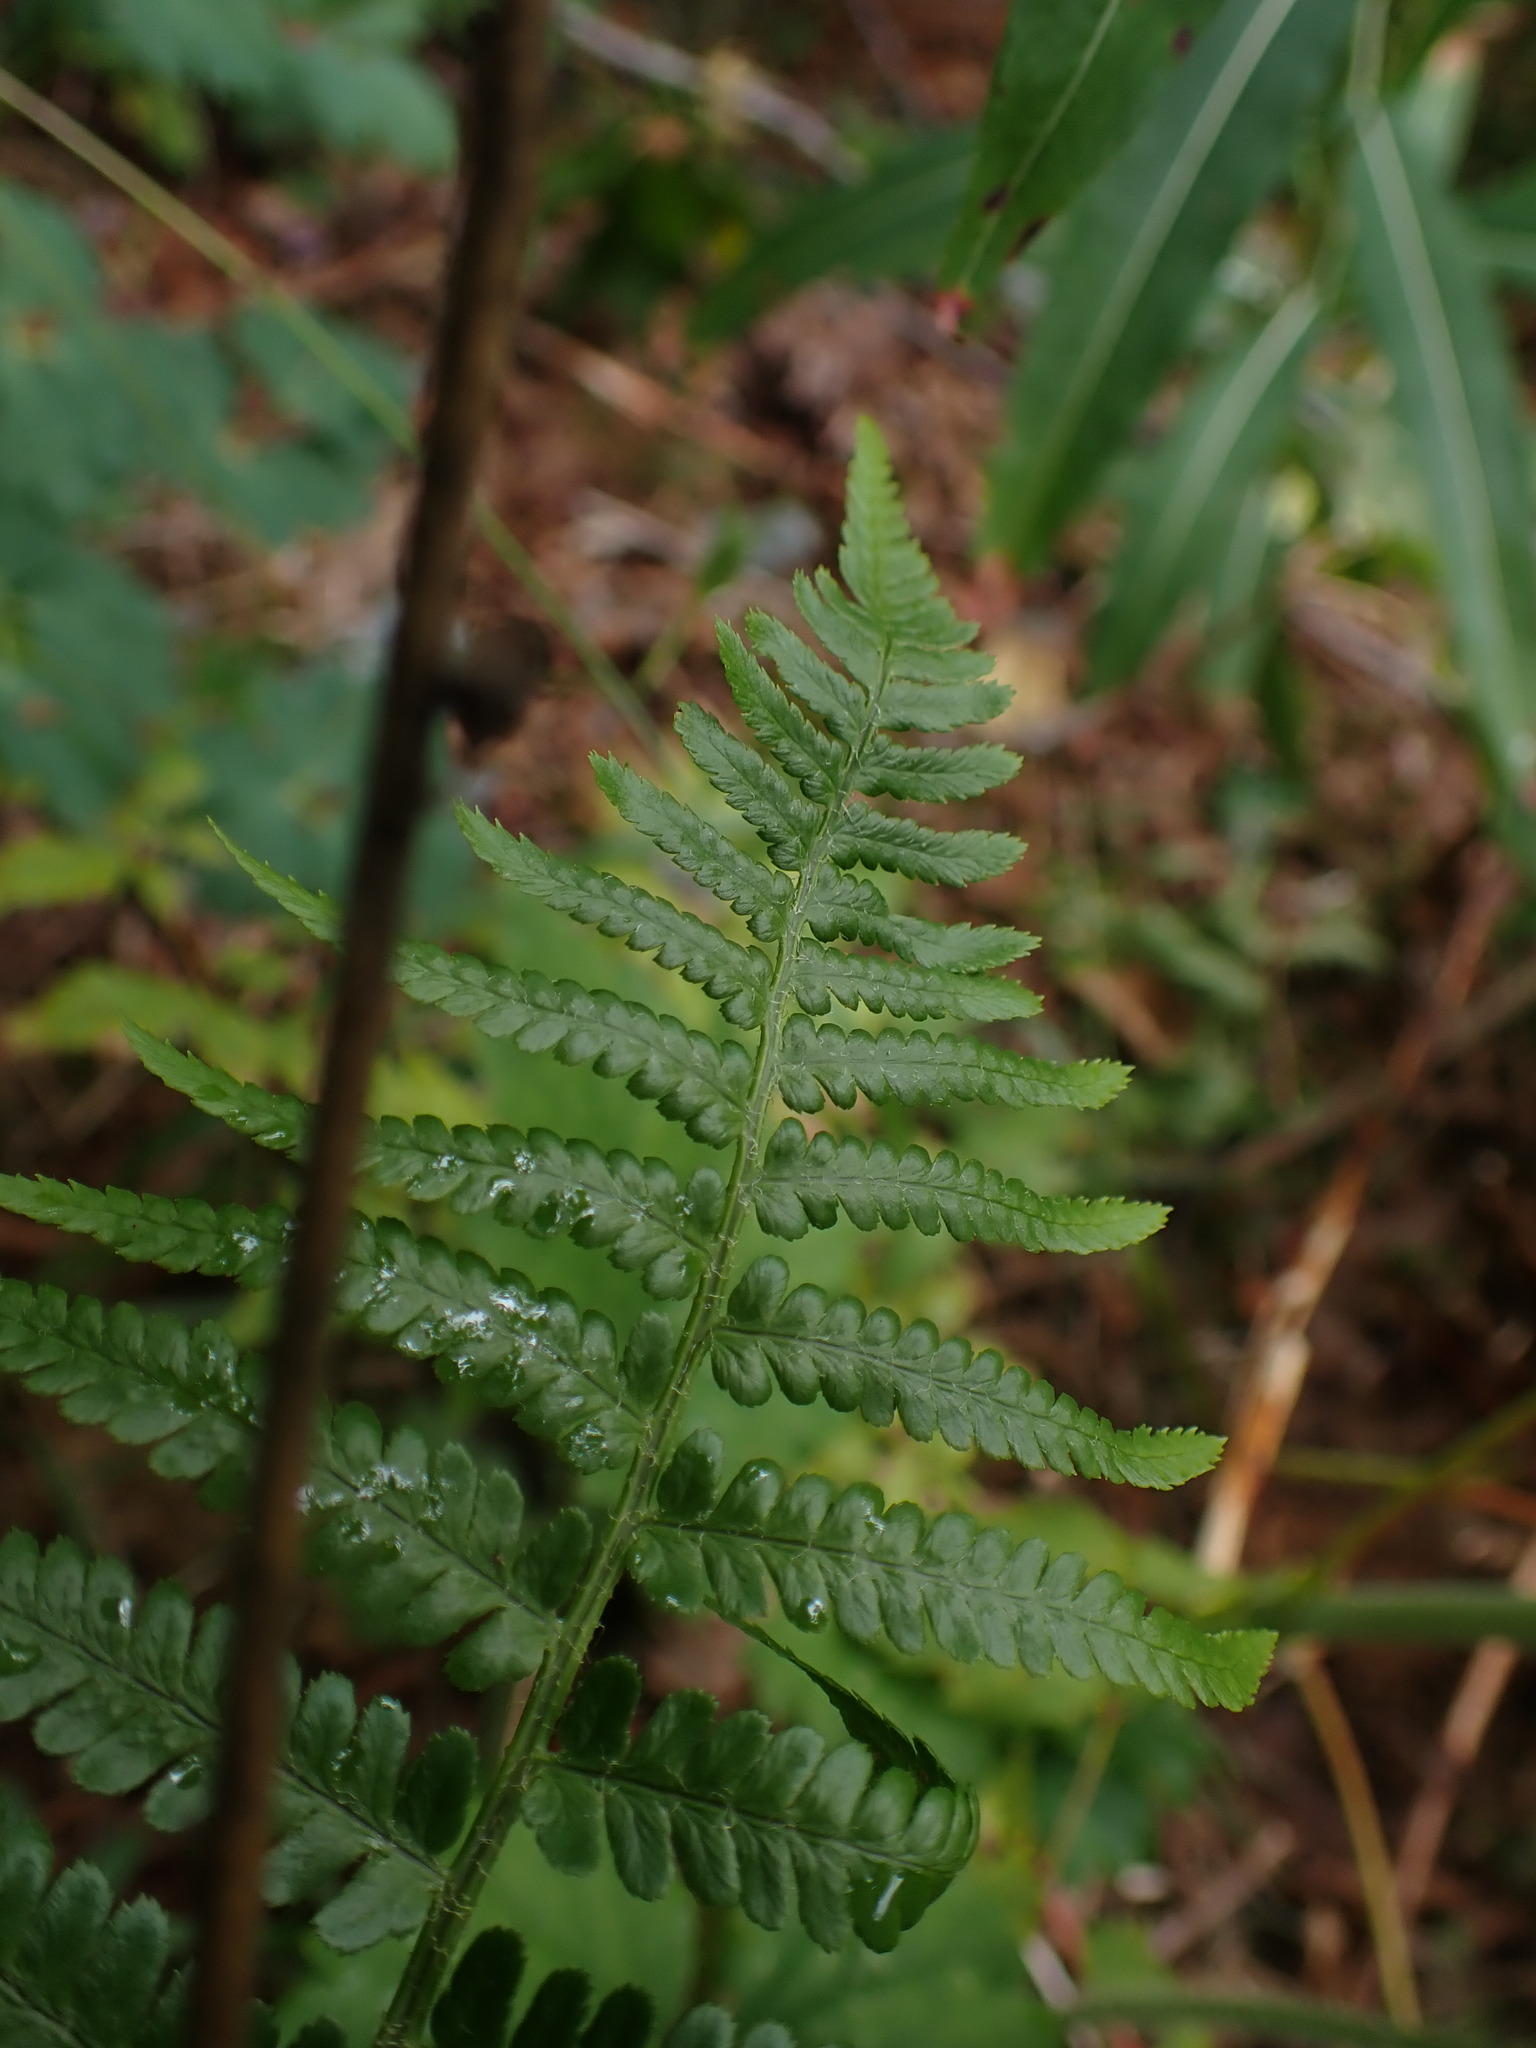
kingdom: Plantae
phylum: Tracheophyta
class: Polypodiopsida
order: Polypodiales
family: Dryopteridaceae
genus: Dryopteris
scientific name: Dryopteris filix-mas
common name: Male fern
